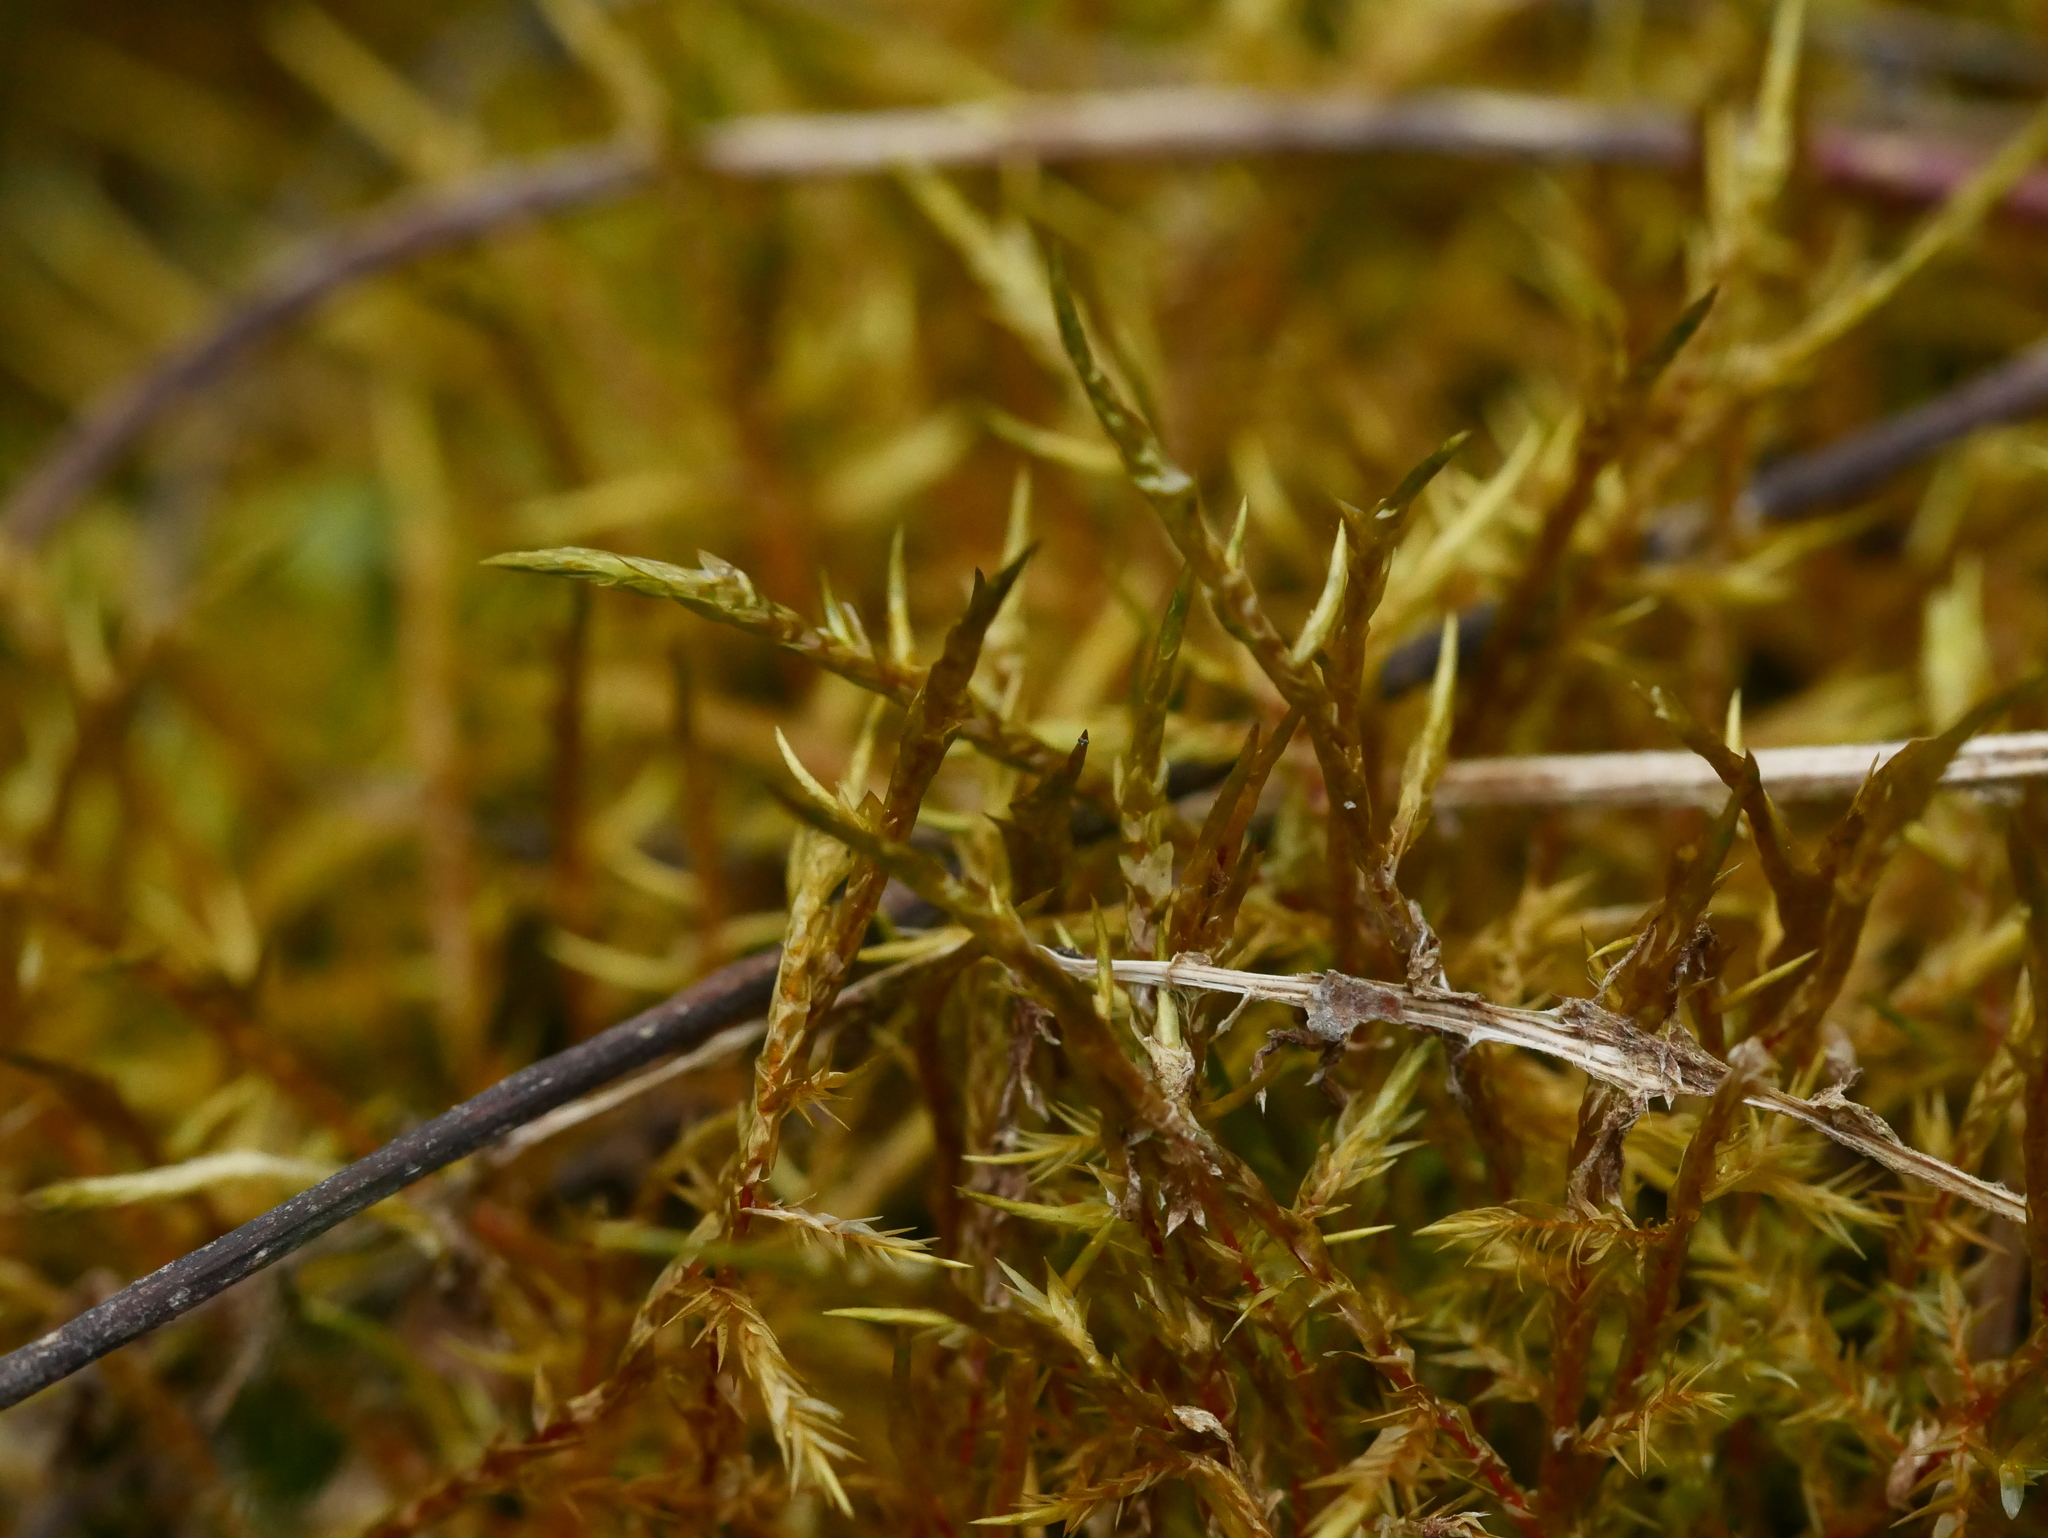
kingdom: Plantae
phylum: Bryophyta
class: Bryopsida
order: Hypnales
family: Pylaisiaceae
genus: Calliergonella
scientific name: Calliergonella cuspidata
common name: Common large wetland moss
